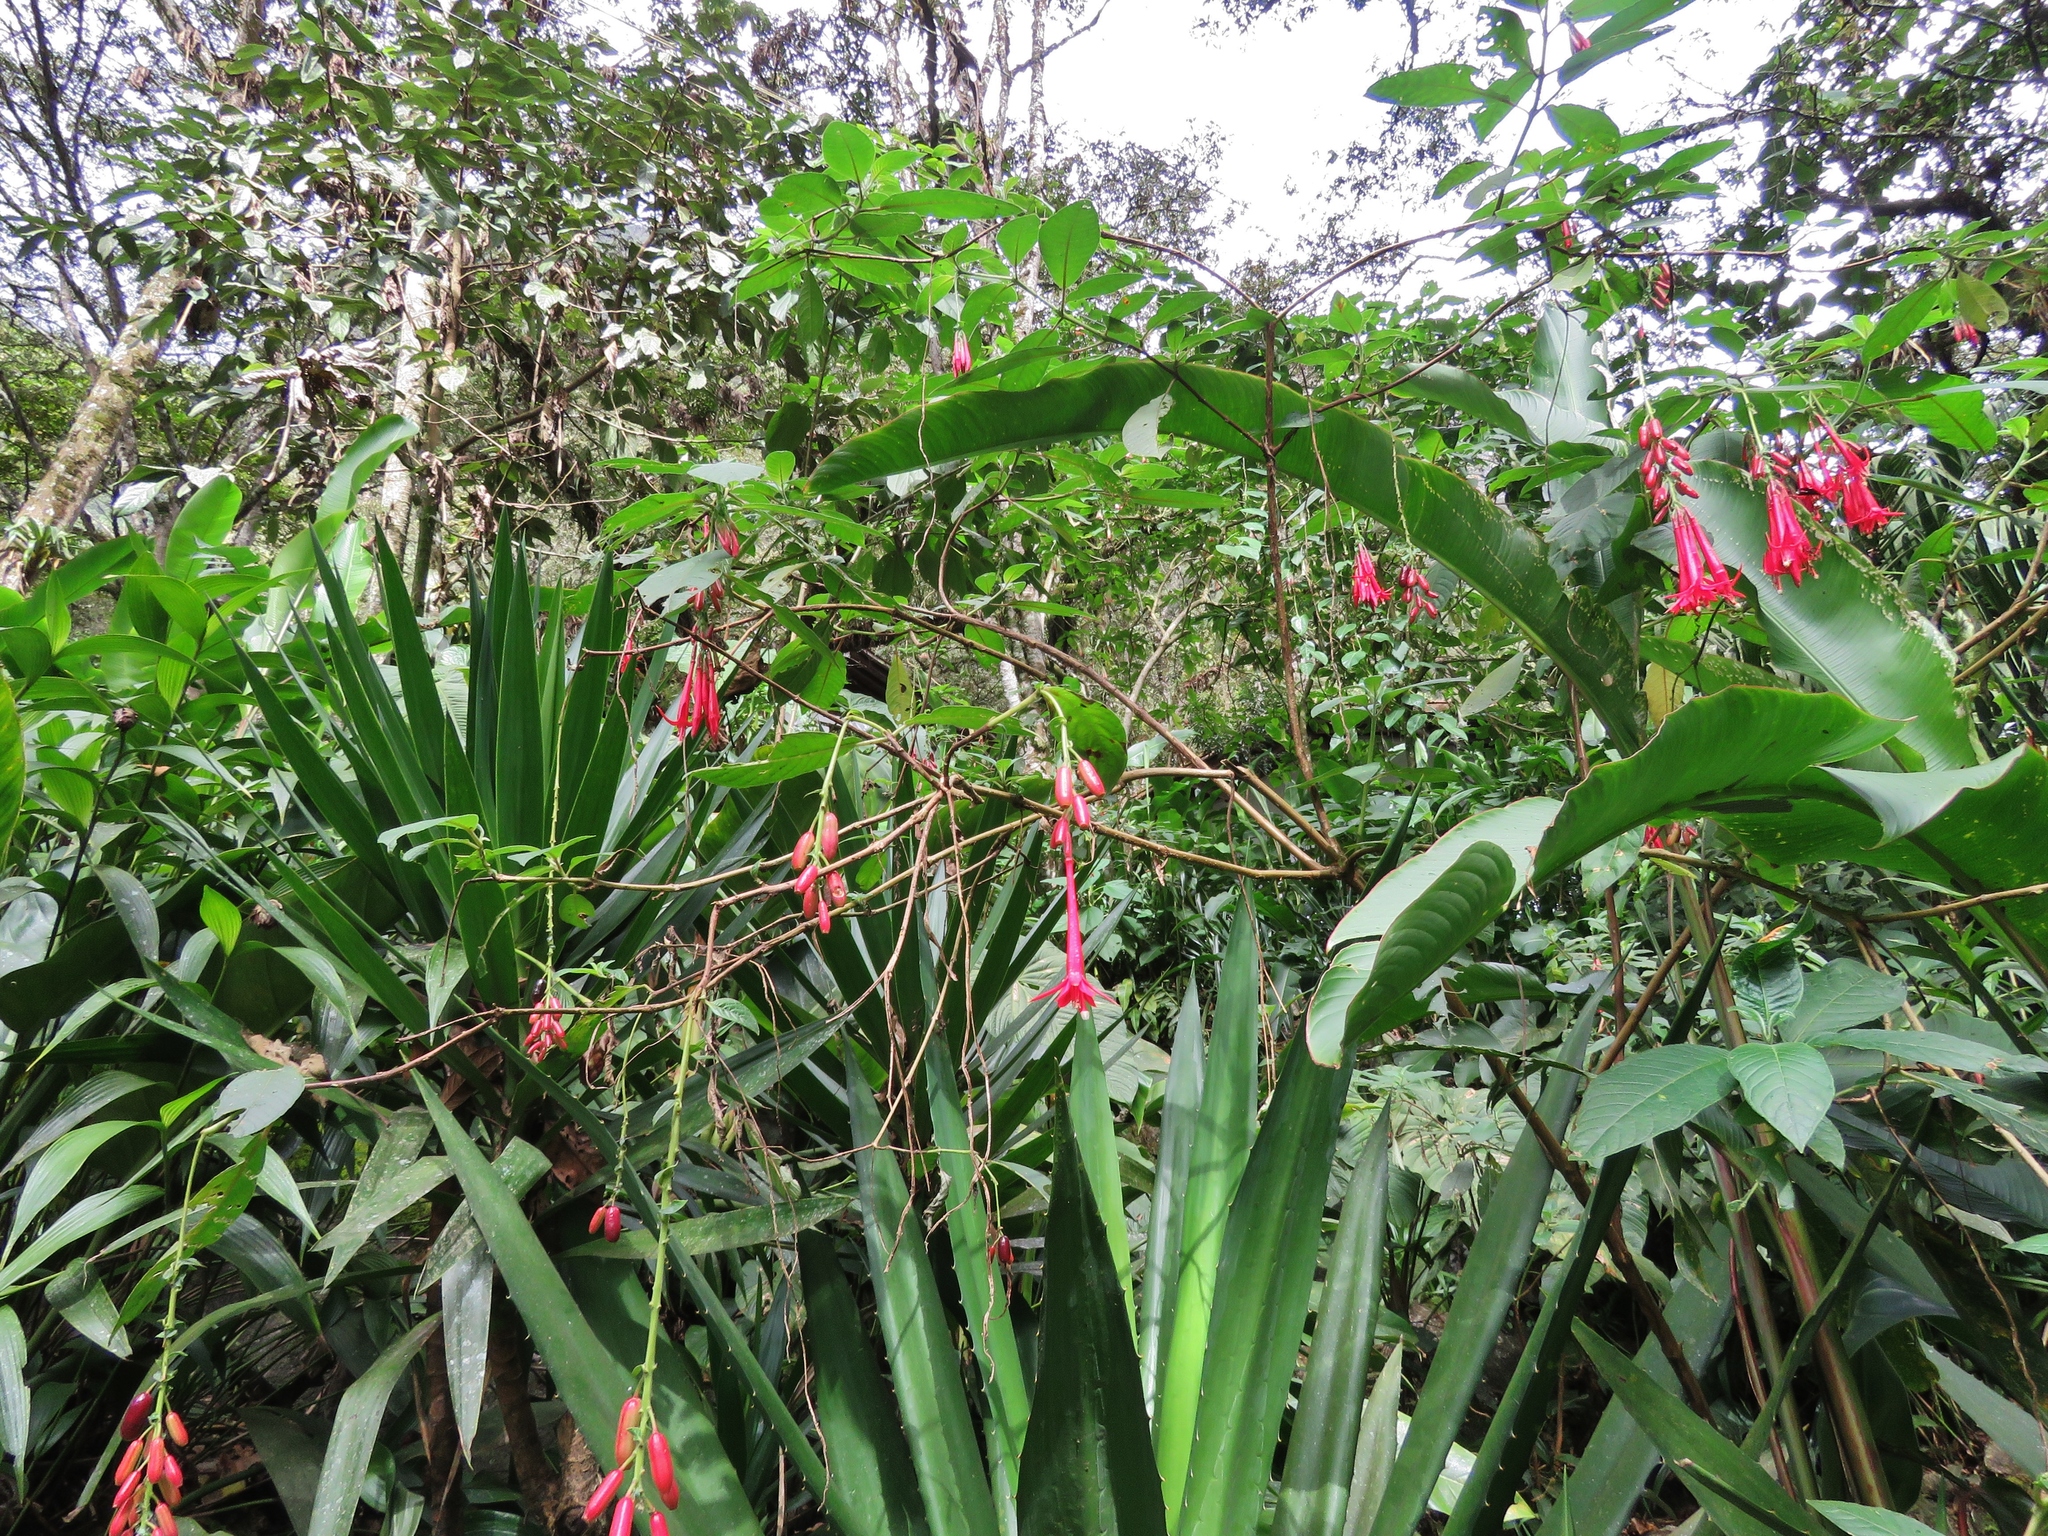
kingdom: Plantae
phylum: Tracheophyta
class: Magnoliopsida
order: Myrtales
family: Onagraceae
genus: Fuchsia
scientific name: Fuchsia boliviana
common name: Bolivian fuchsia
